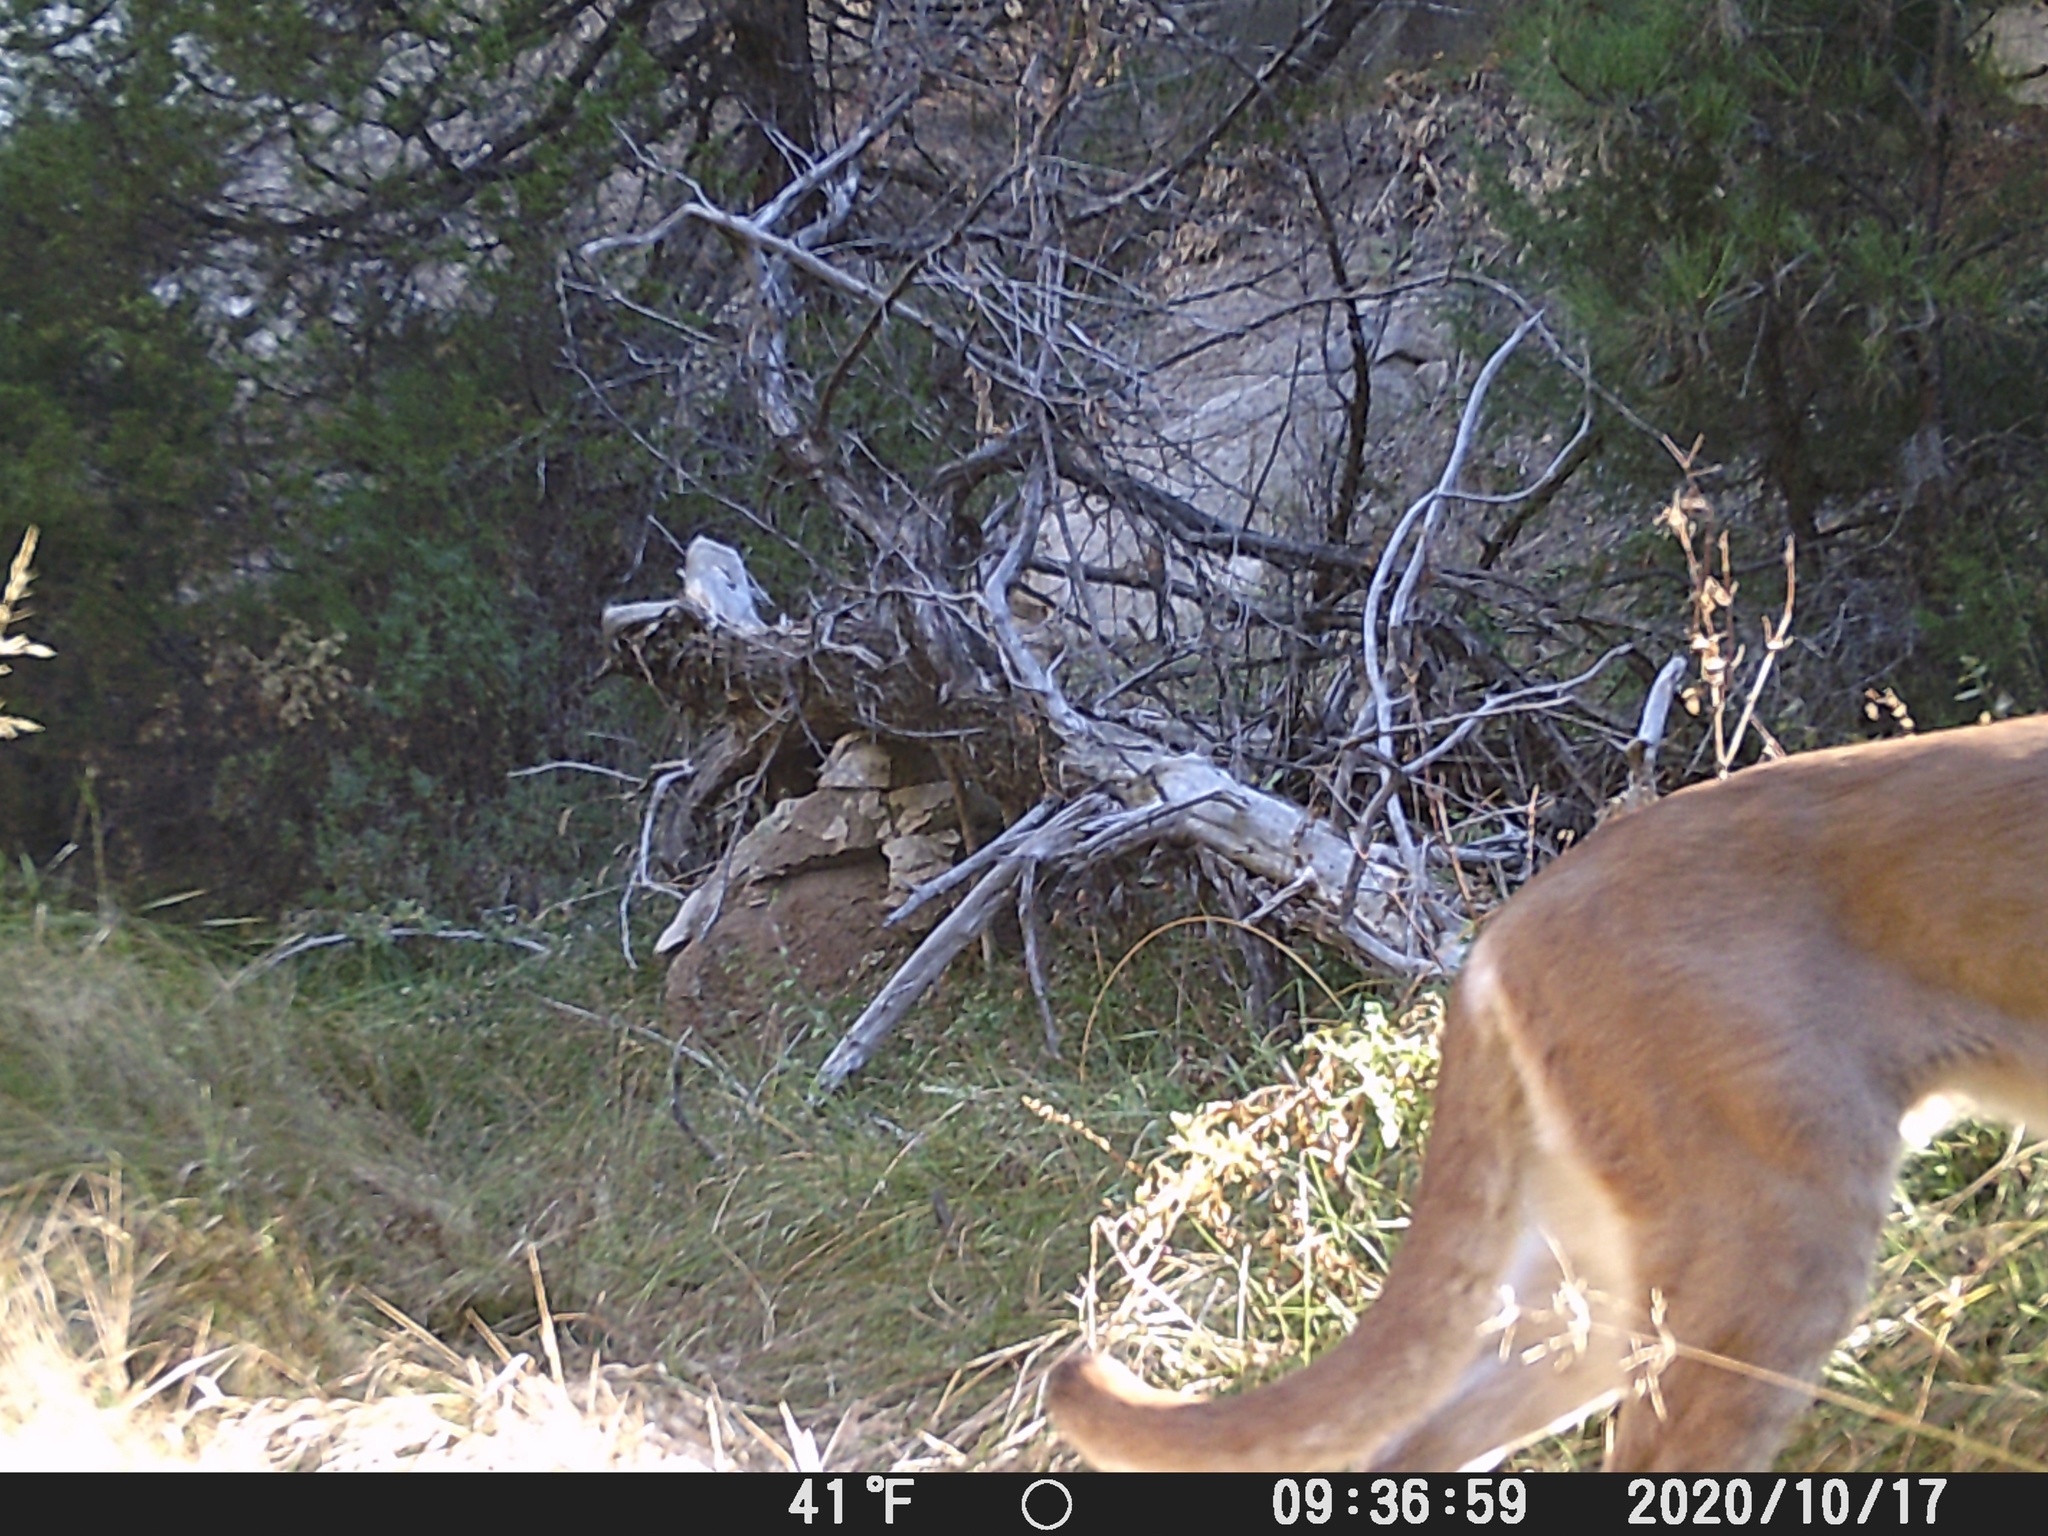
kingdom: Animalia
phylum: Chordata
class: Mammalia
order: Carnivora
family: Felidae
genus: Puma
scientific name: Puma concolor
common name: Puma
